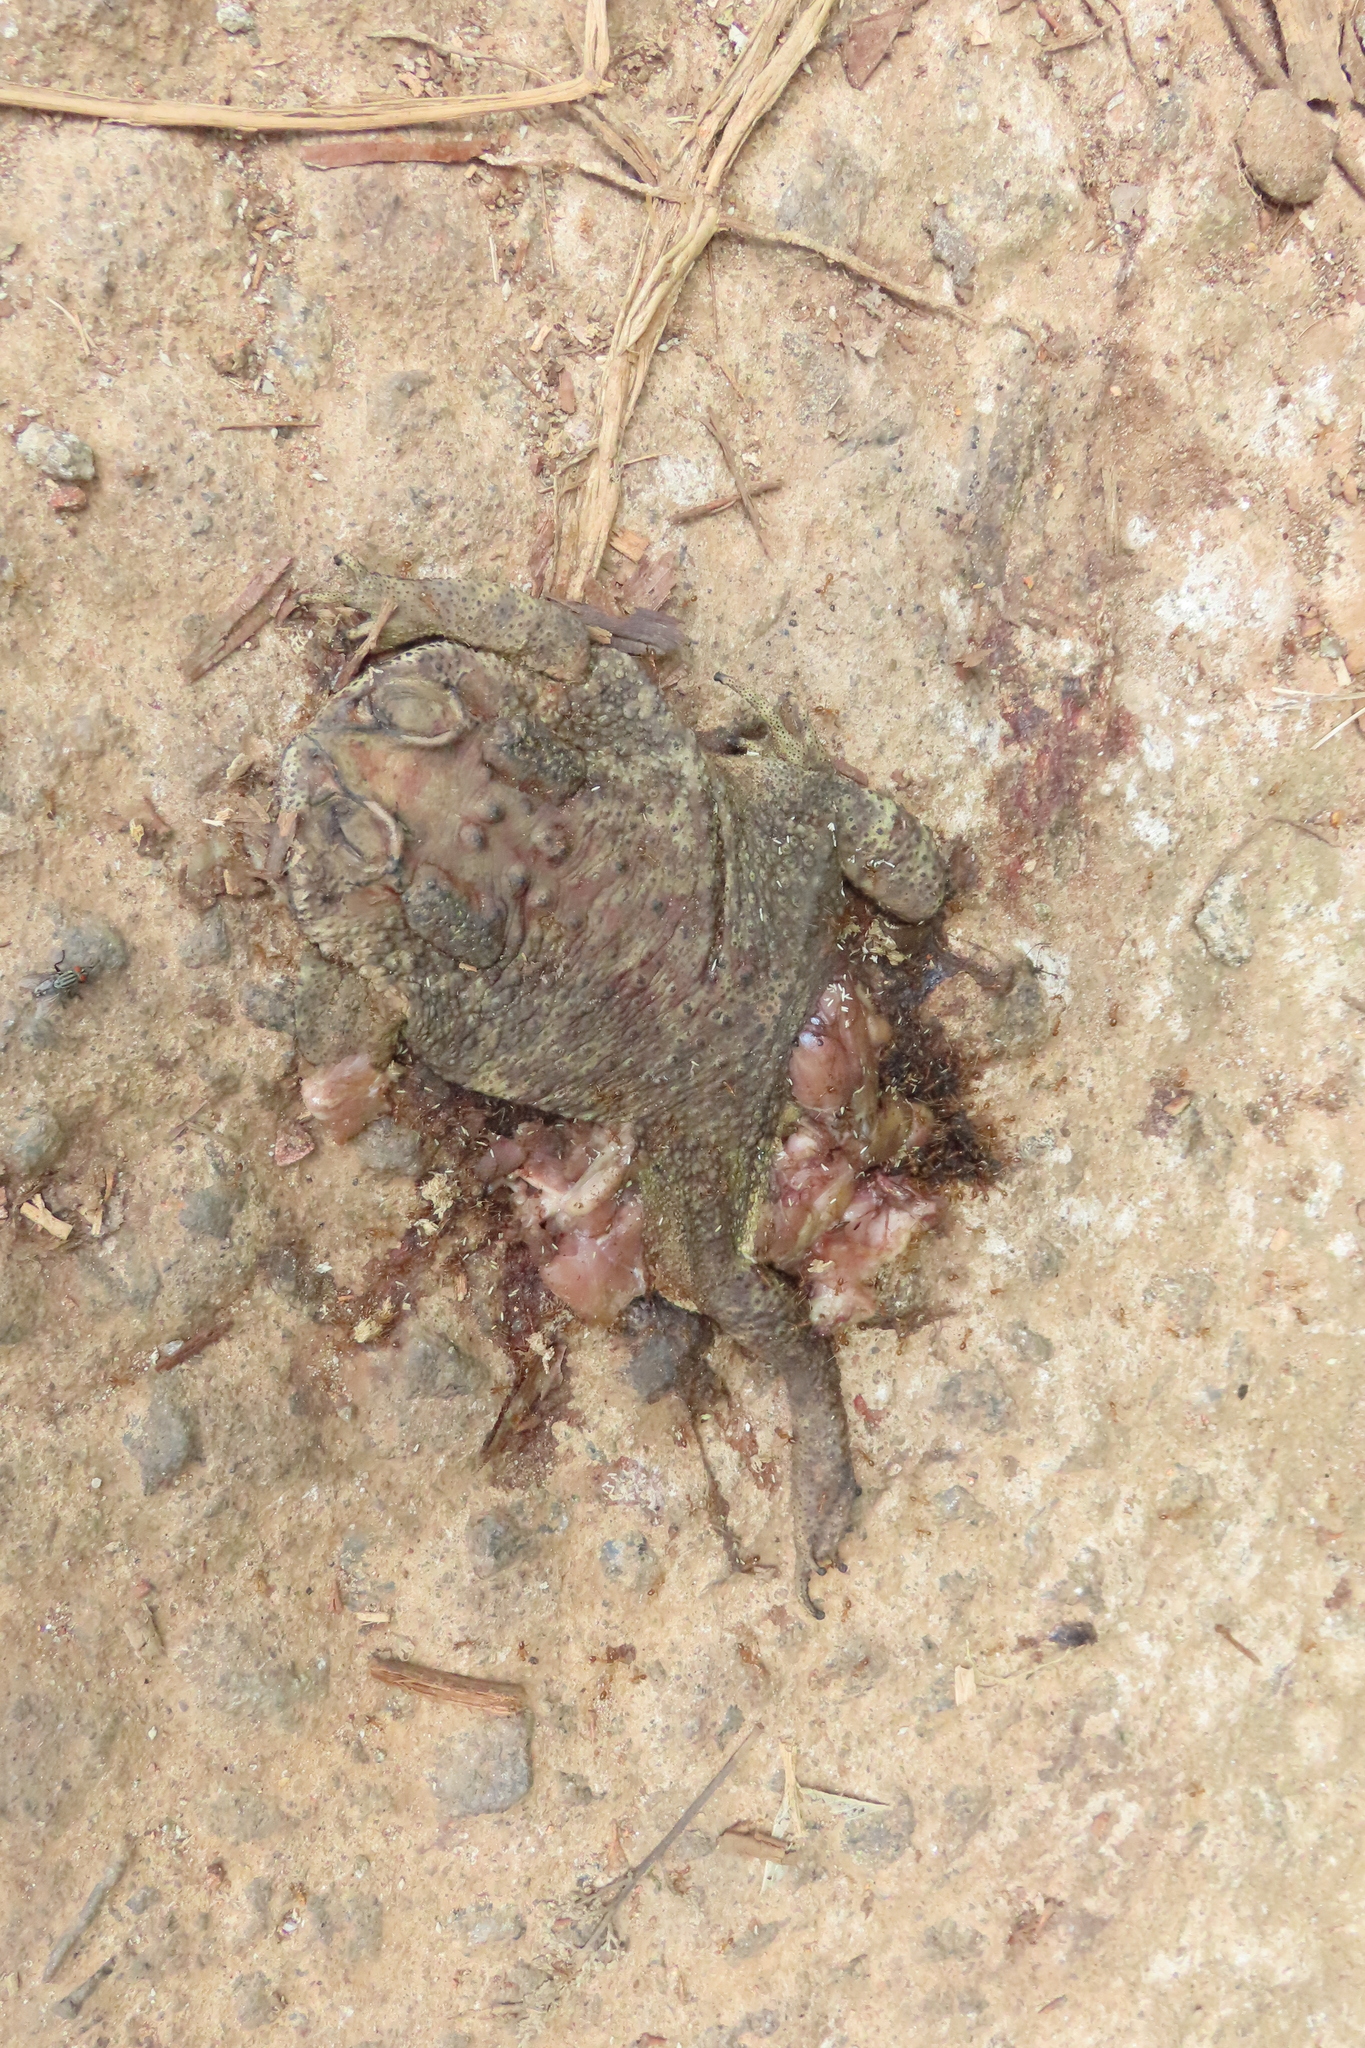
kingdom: Animalia
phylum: Chordata
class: Amphibia
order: Anura
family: Bufonidae
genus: Duttaphrynus
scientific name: Duttaphrynus melanostictus
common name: Common sunda toad
